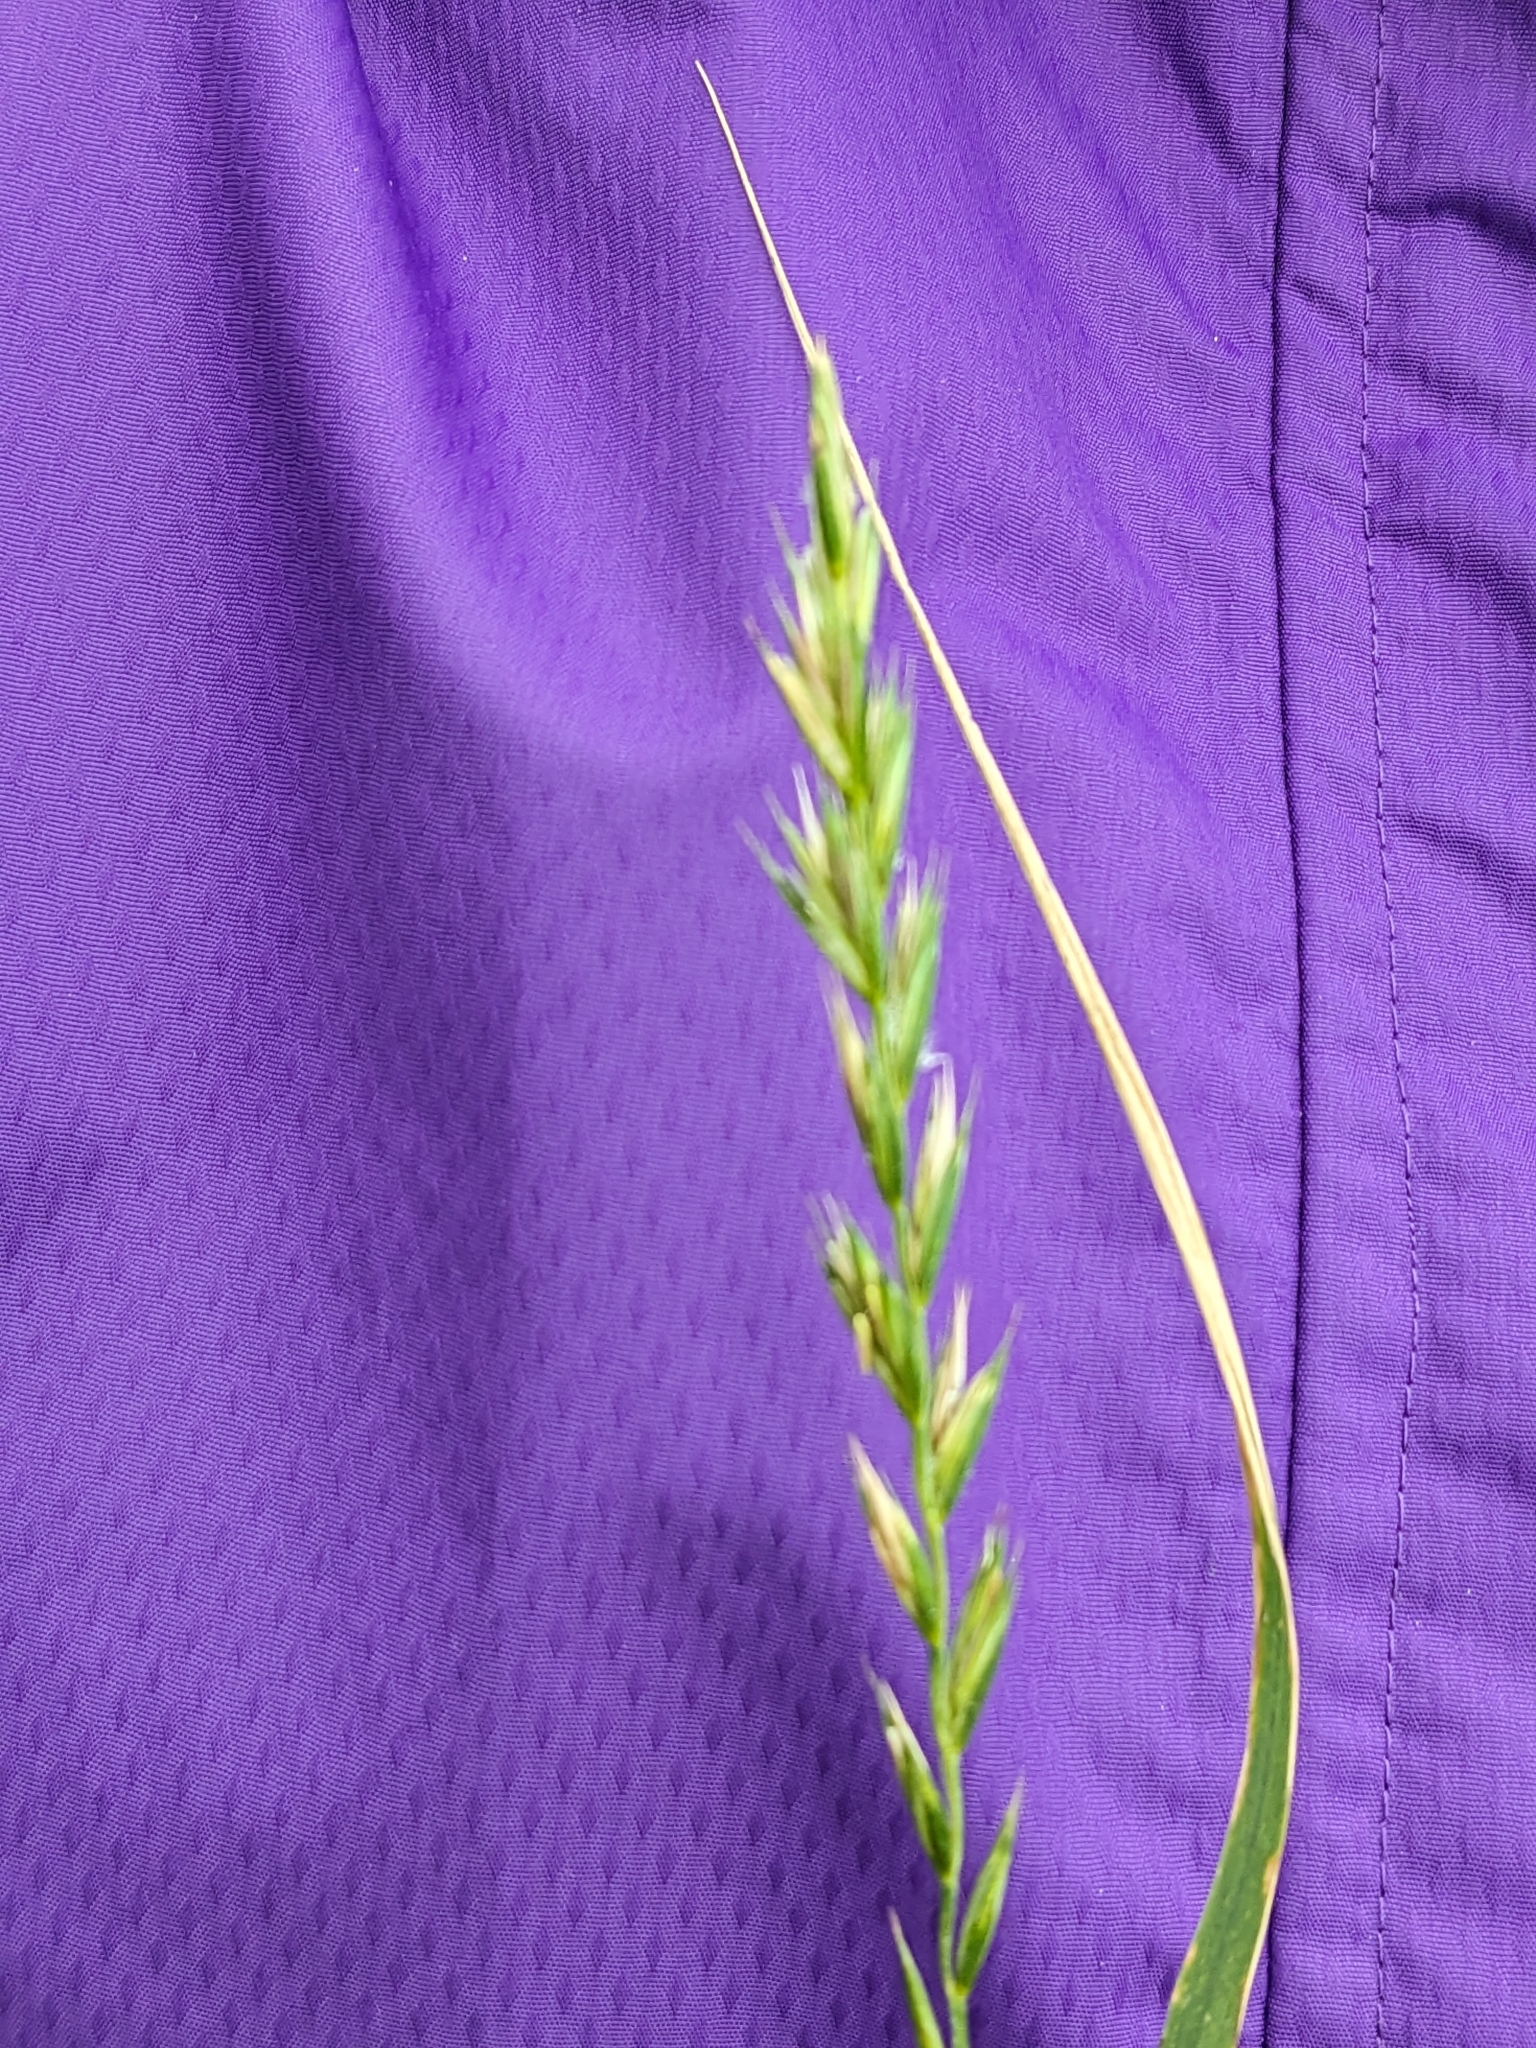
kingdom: Plantae
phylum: Tracheophyta
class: Liliopsida
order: Poales
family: Poaceae
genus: Elymus
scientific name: Elymus repens
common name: Quackgrass
